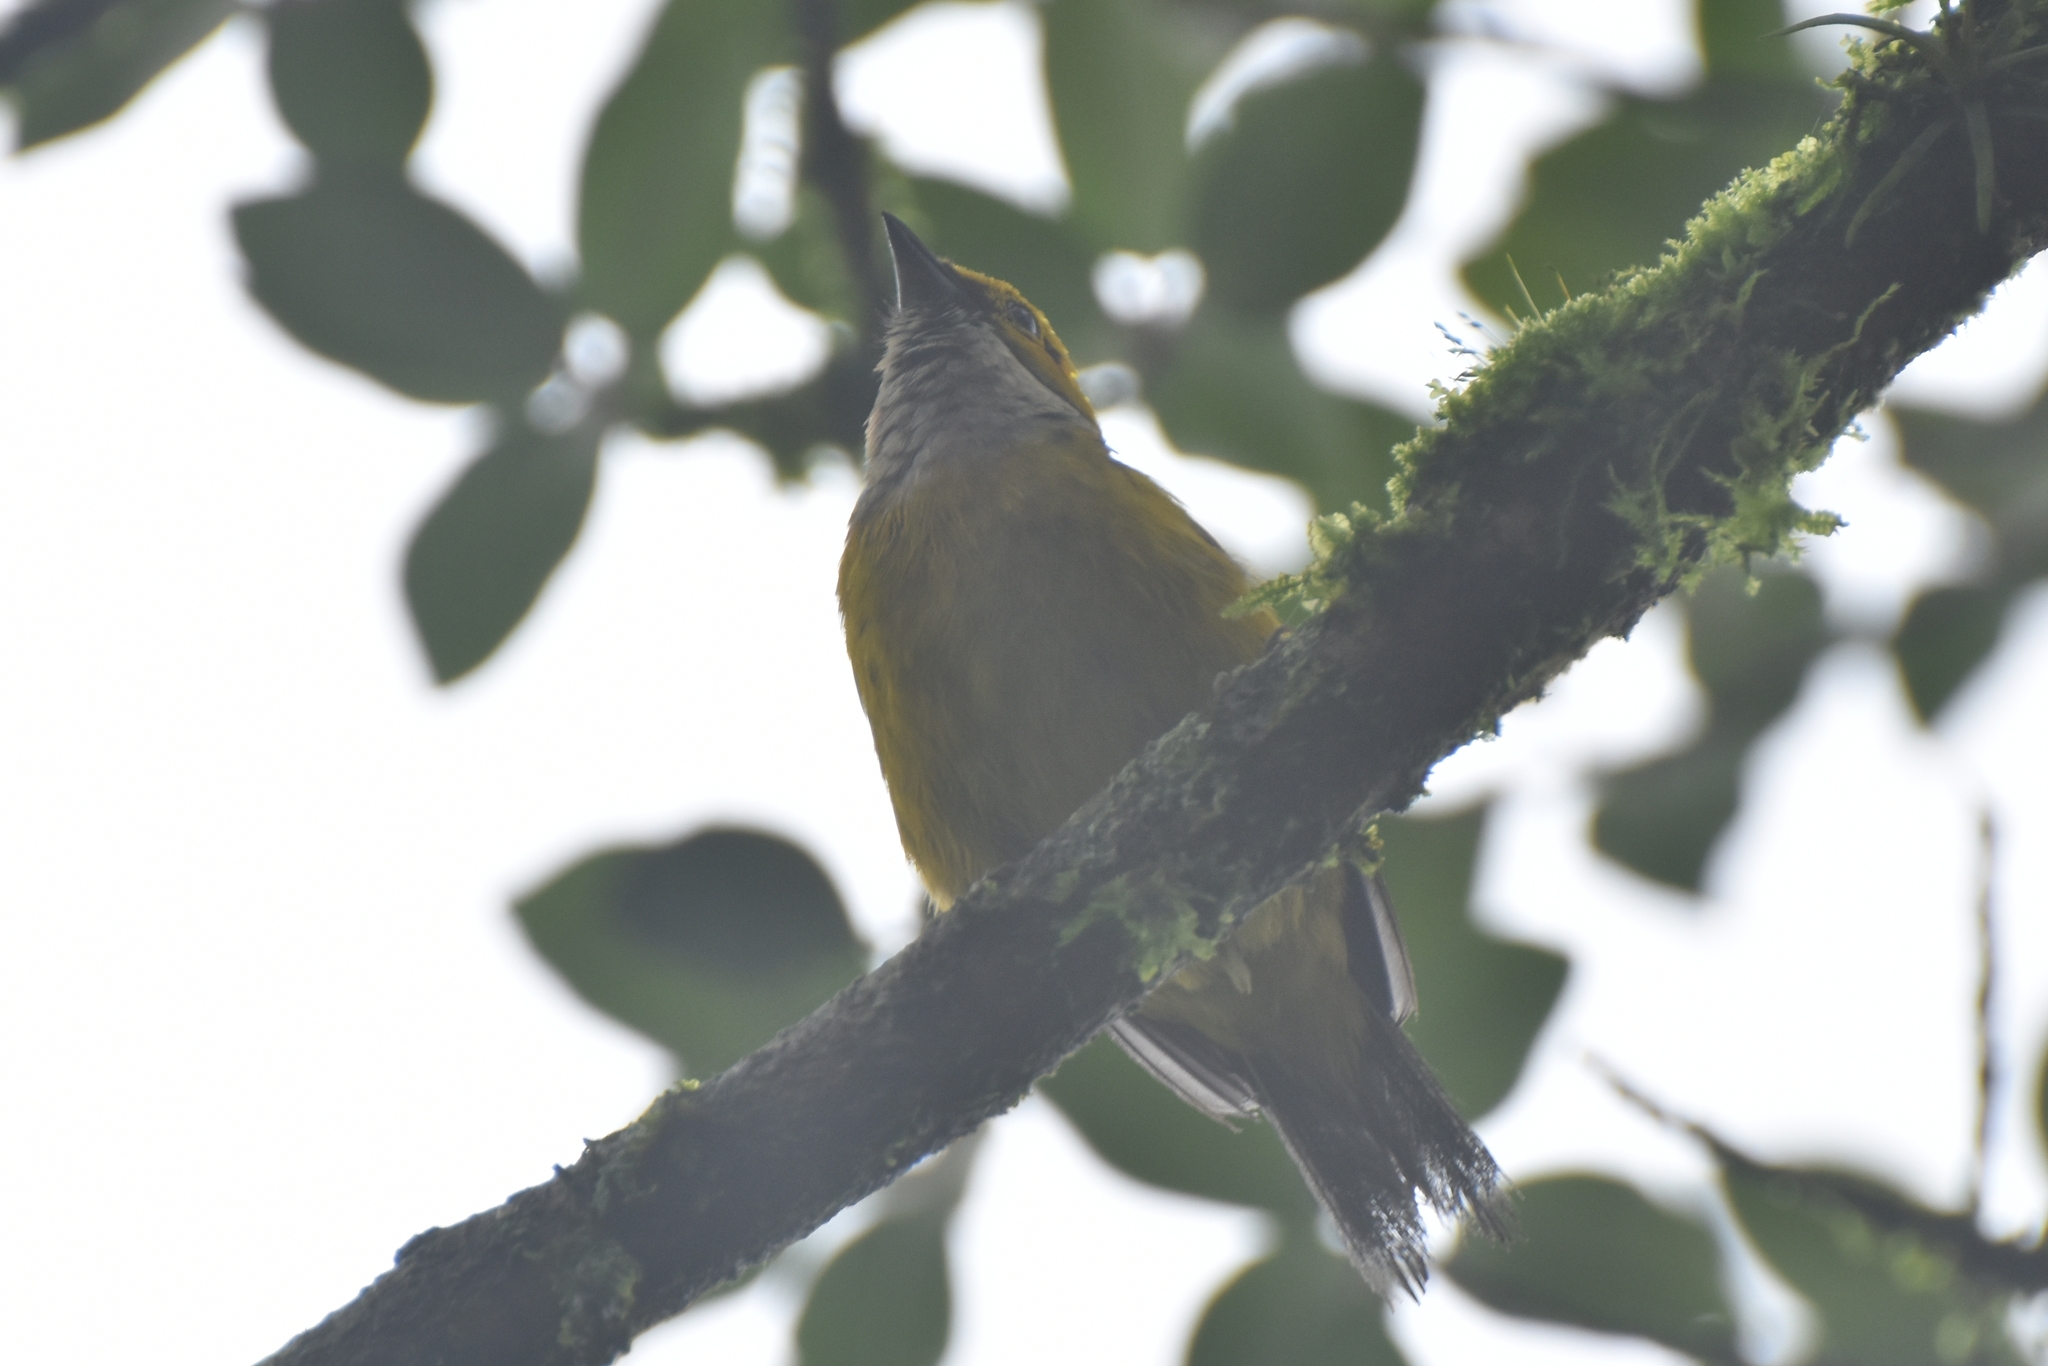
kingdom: Animalia
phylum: Chordata
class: Aves
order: Passeriformes
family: Thraupidae
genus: Tangara
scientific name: Tangara icterocephala
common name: Silver-throated tanager
